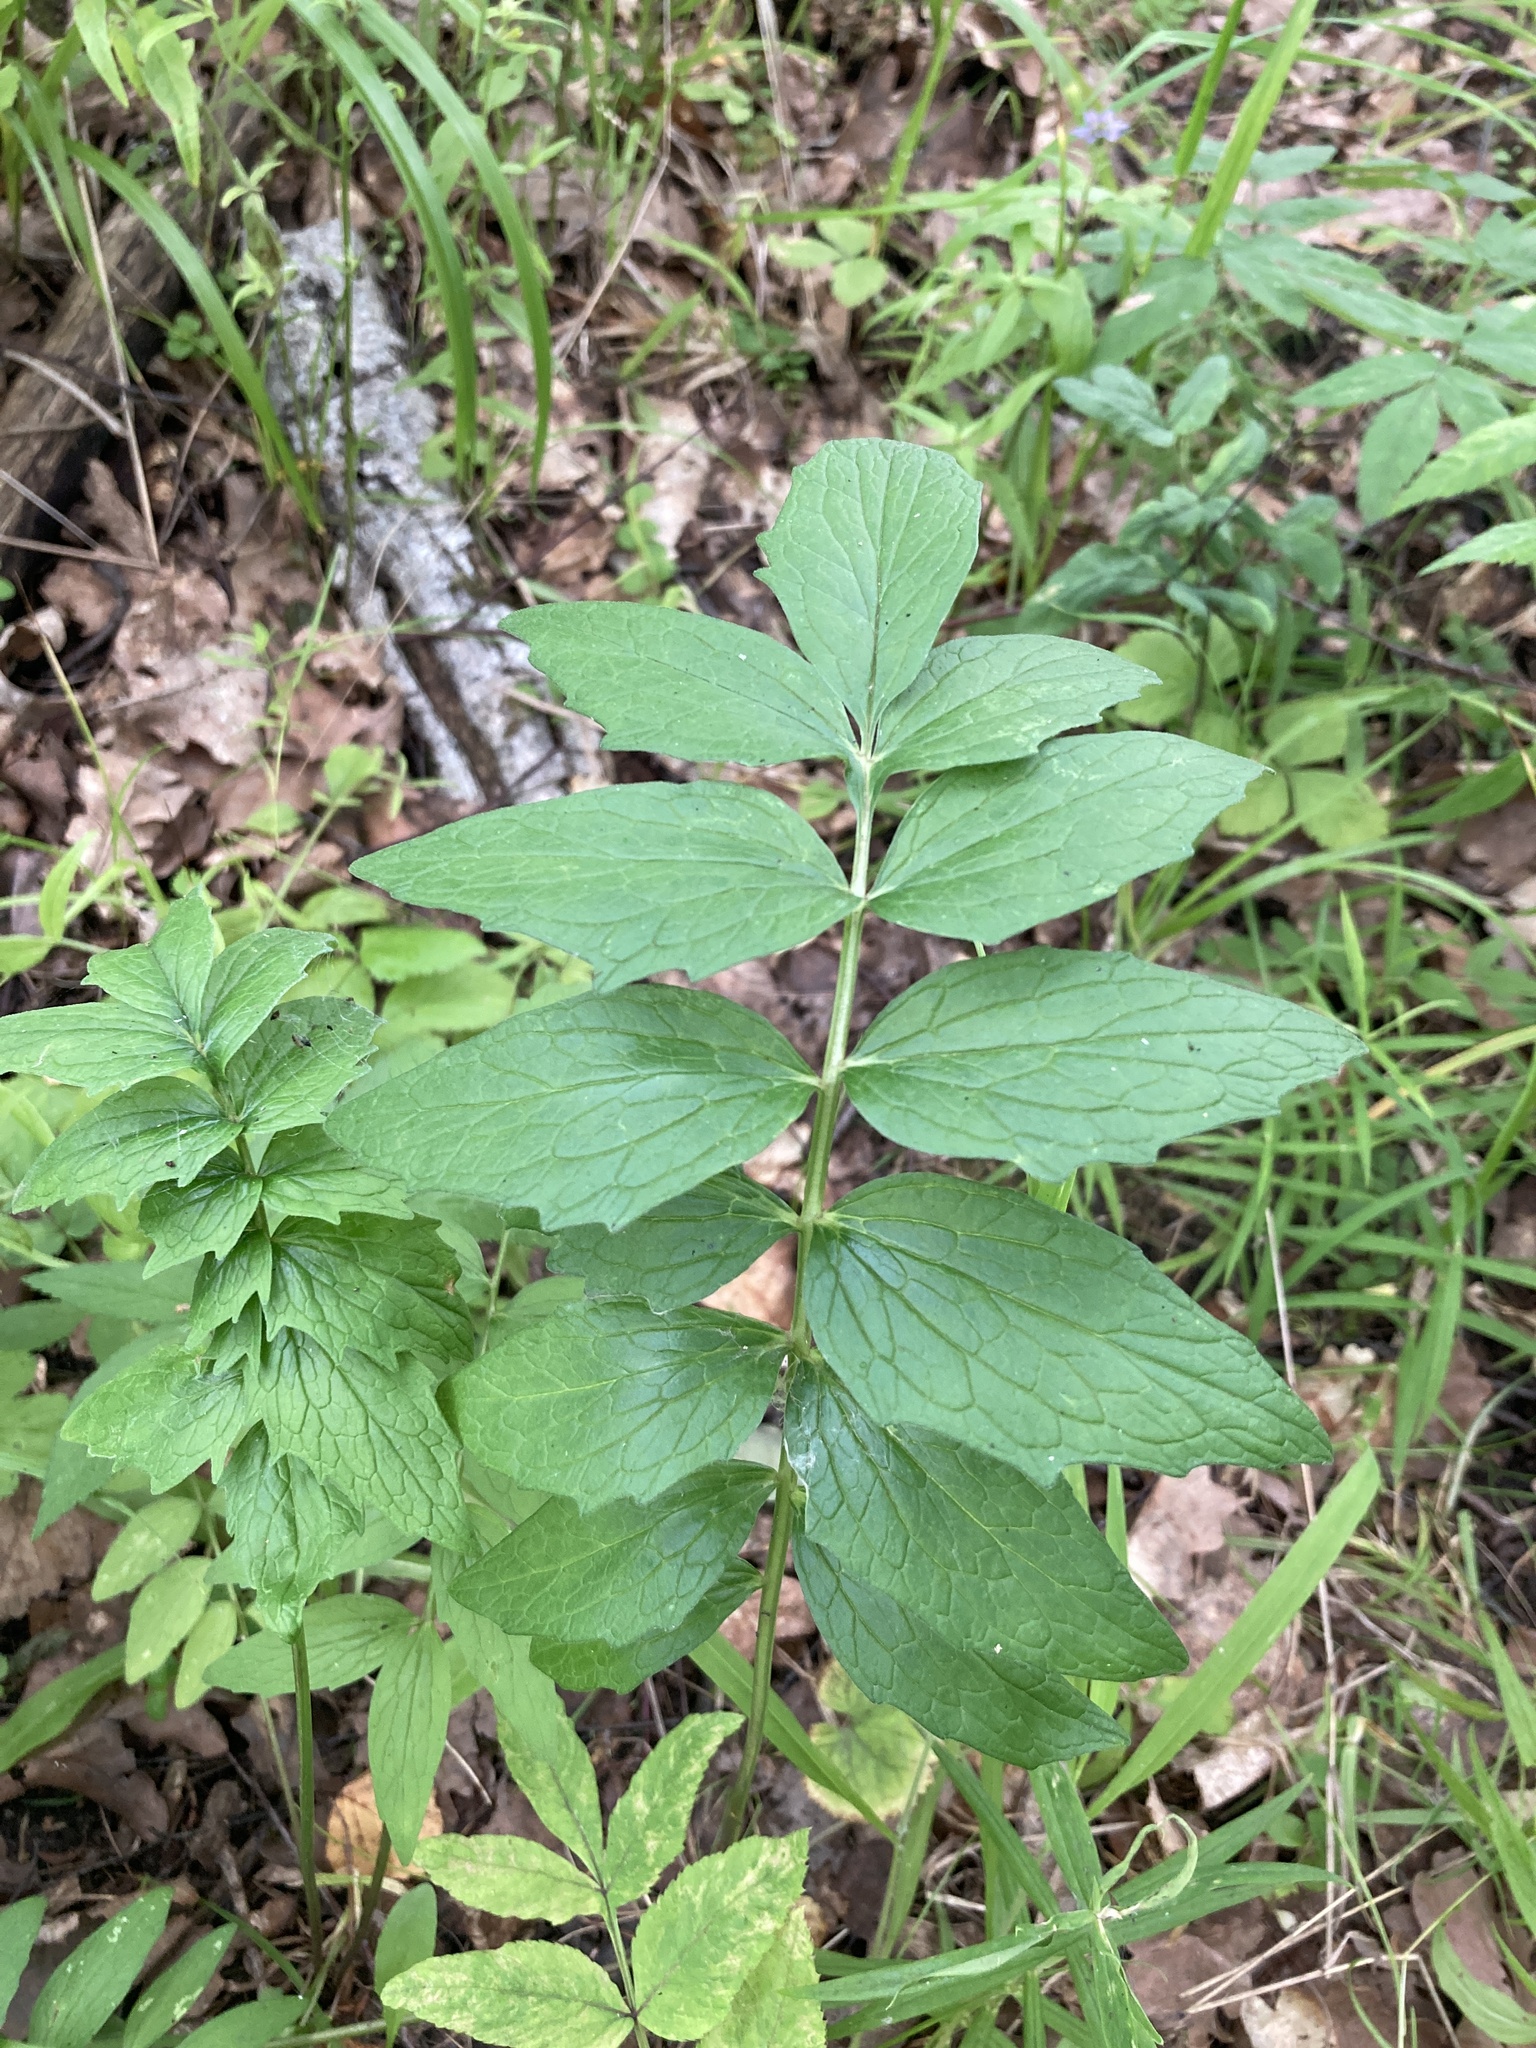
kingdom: Plantae
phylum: Tracheophyta
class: Magnoliopsida
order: Dipsacales
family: Caprifoliaceae
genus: Valeriana
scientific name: Valeriana officinalis
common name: Common valerian
